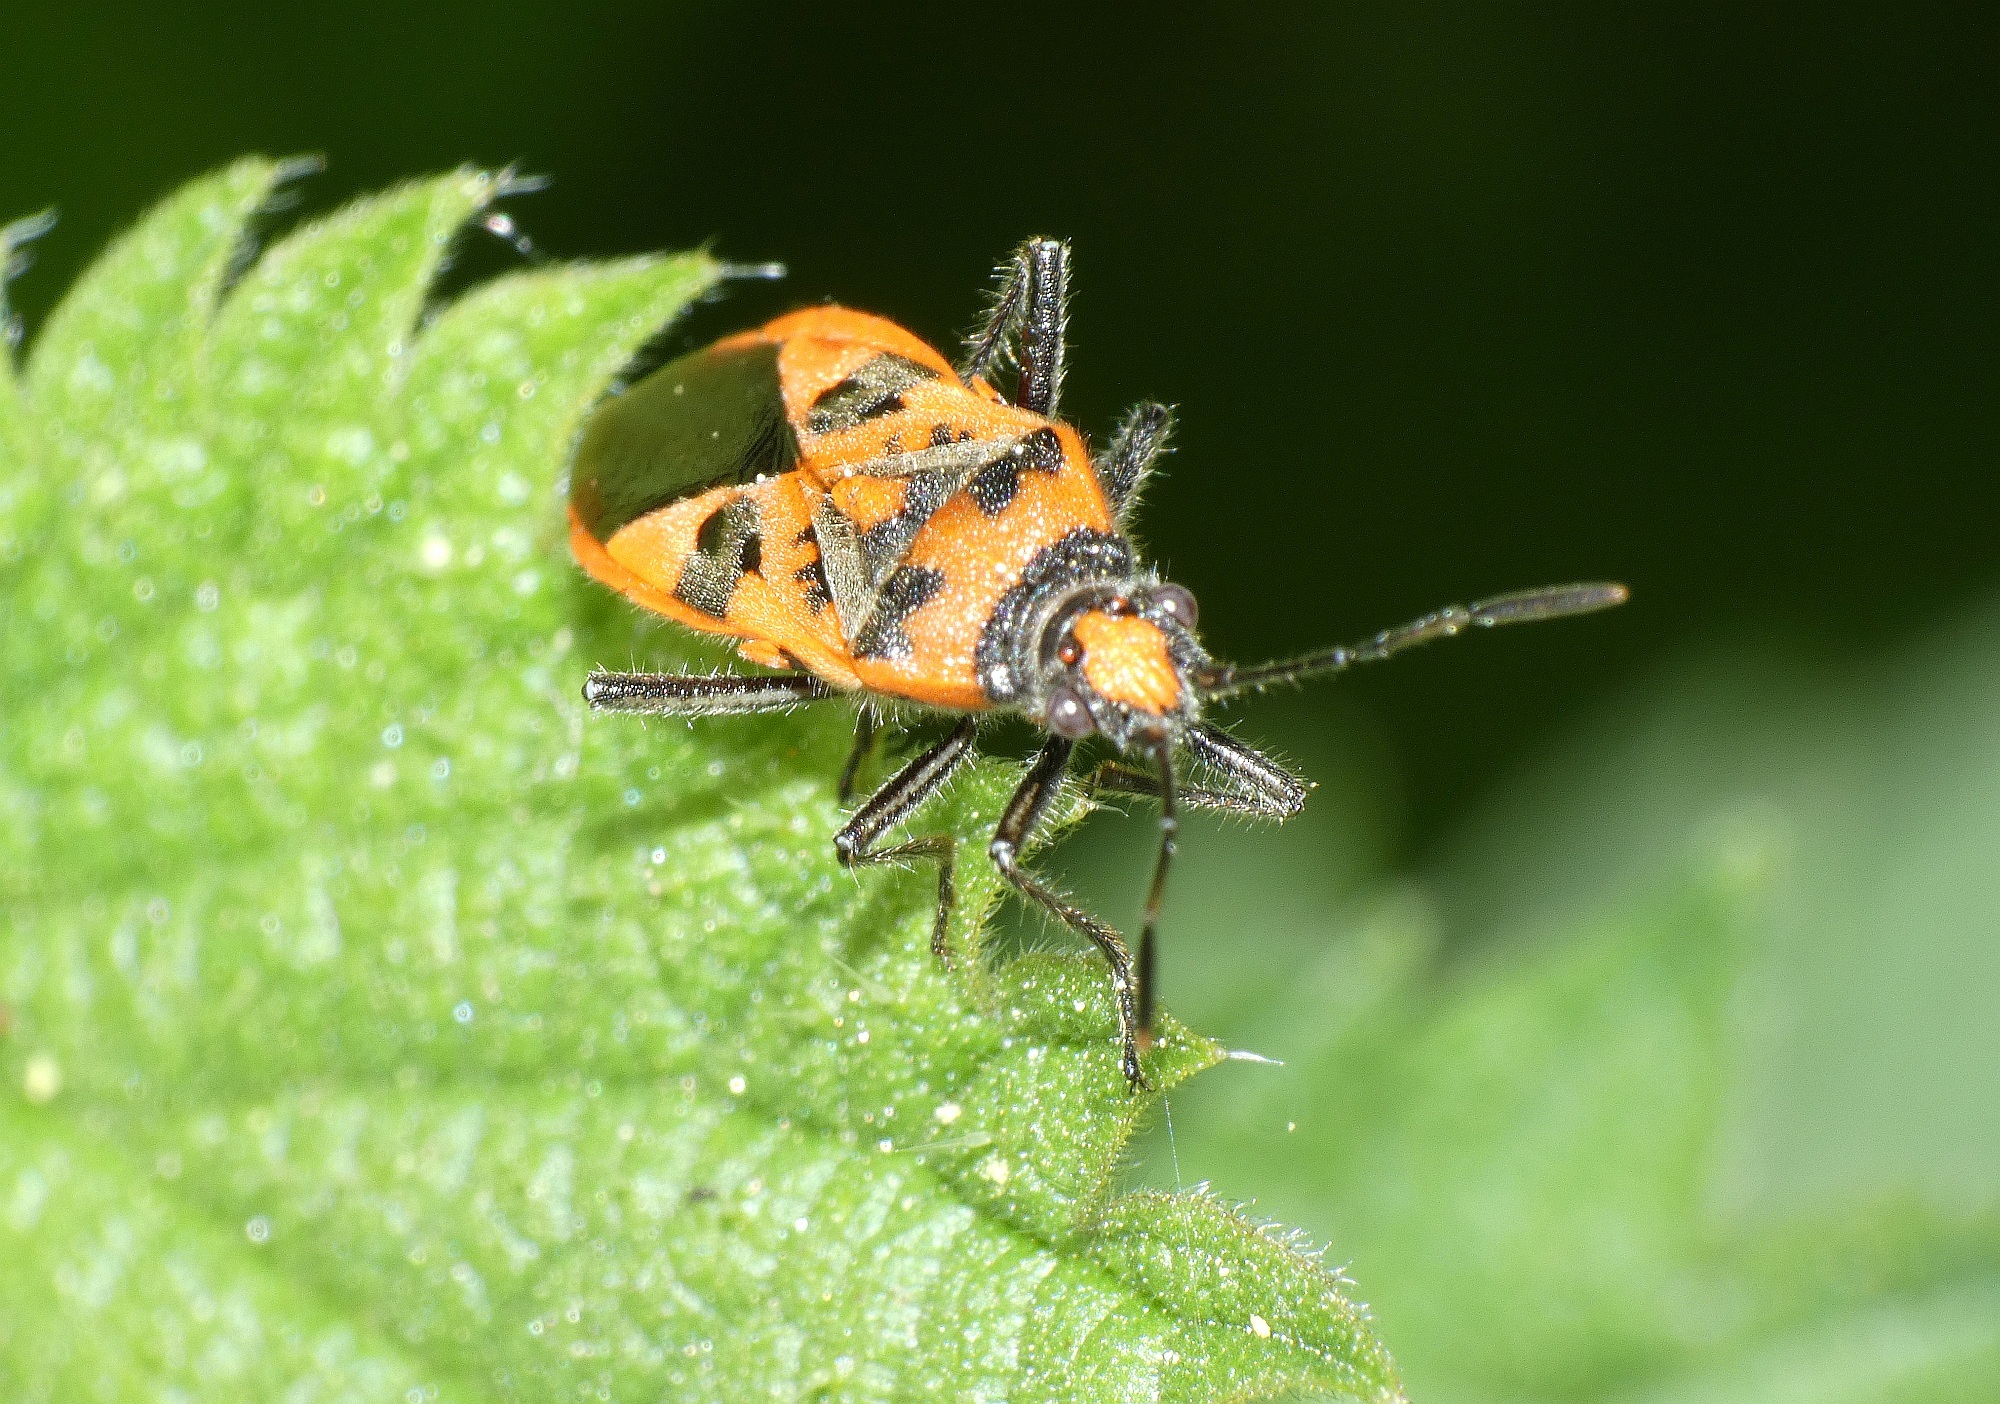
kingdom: Animalia
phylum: Arthropoda
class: Insecta
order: Hemiptera
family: Rhopalidae
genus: Corizus
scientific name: Corizus hyoscyami
